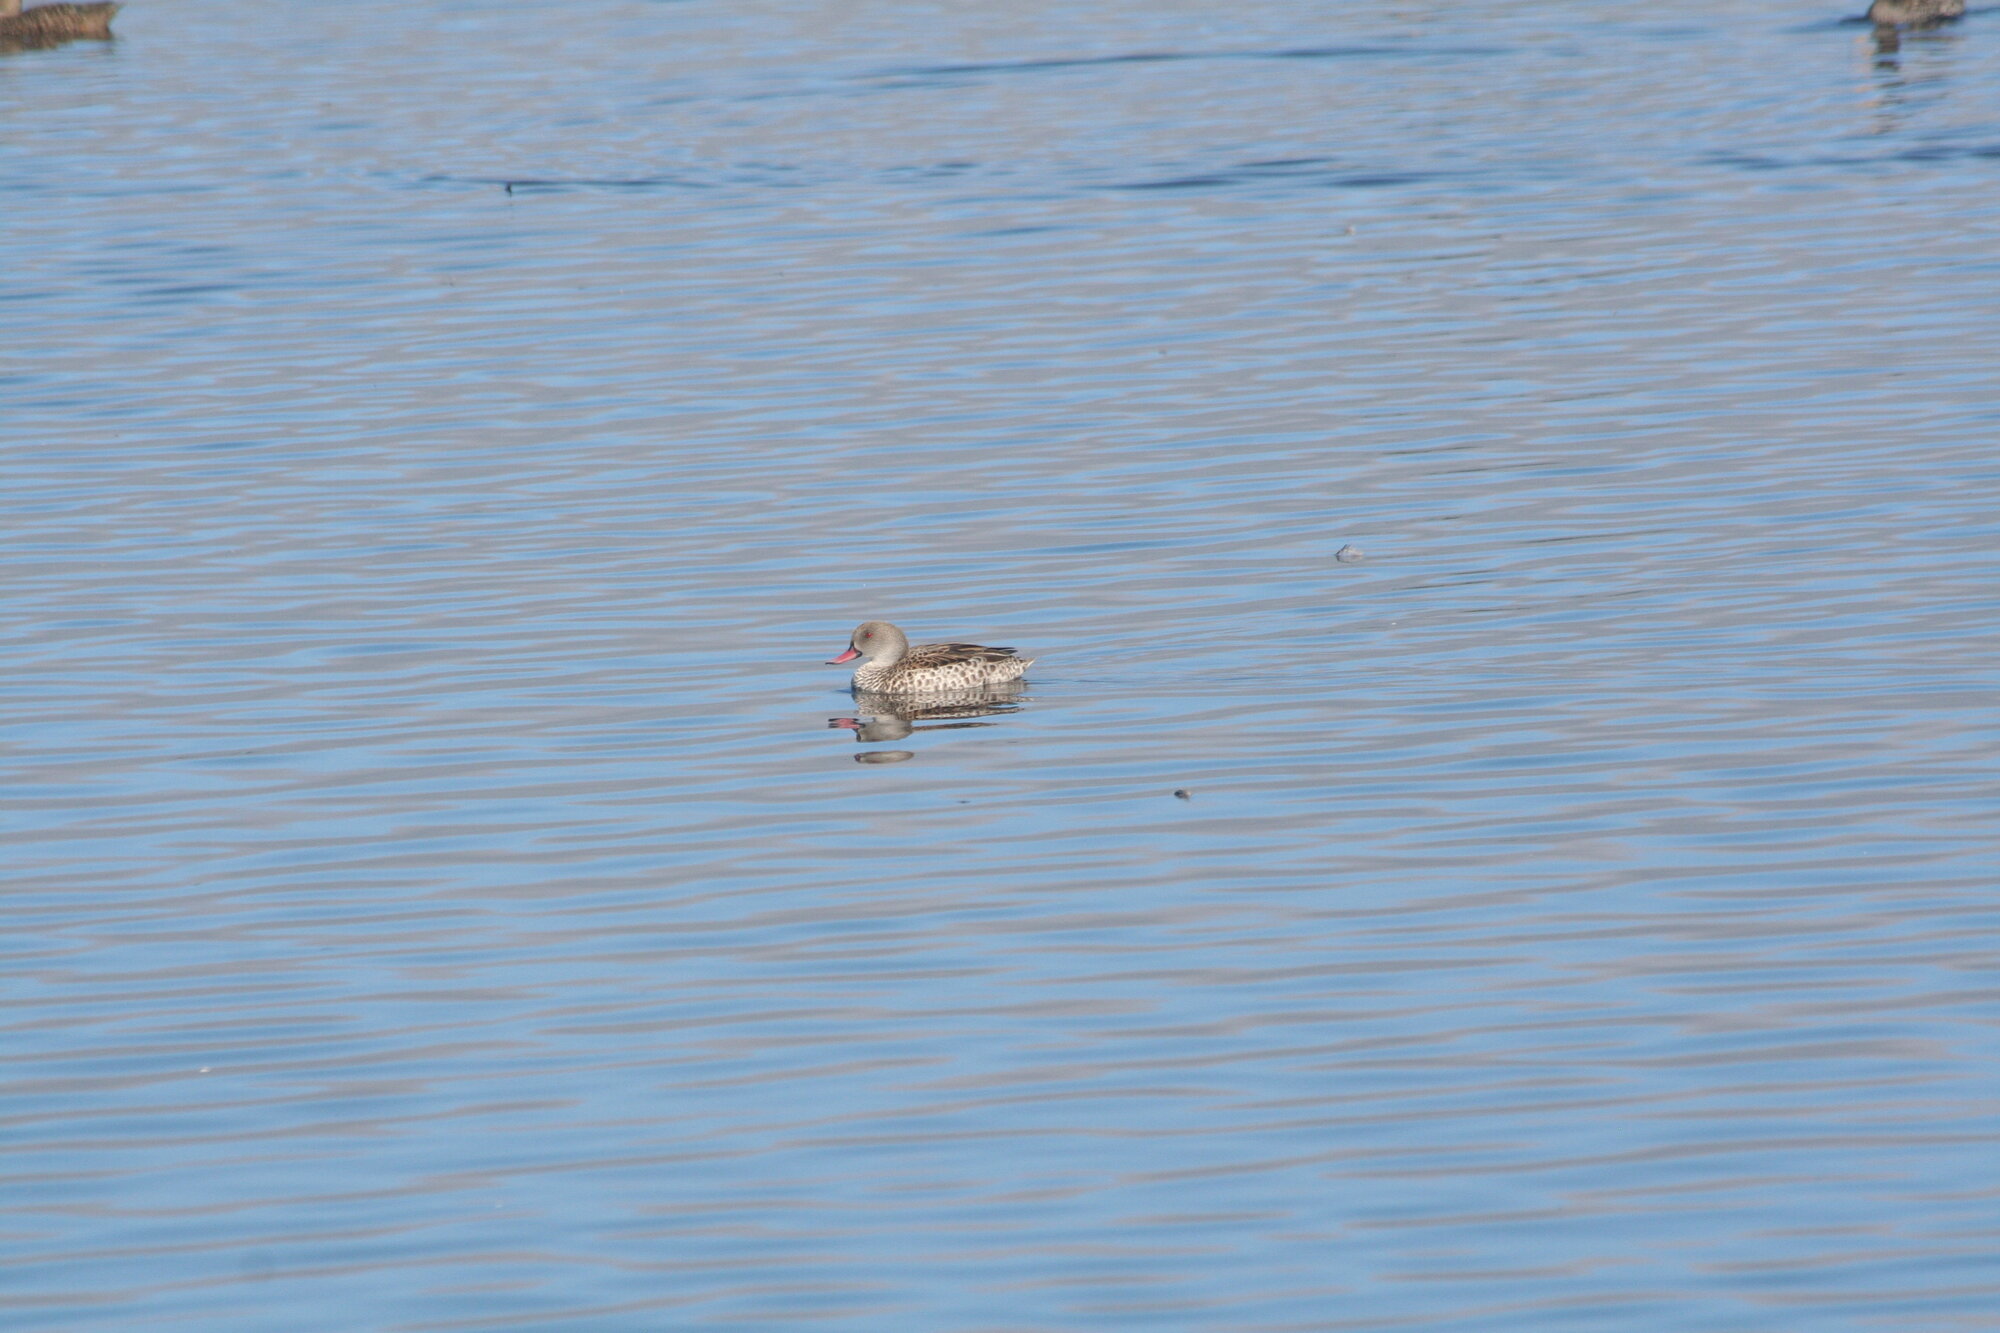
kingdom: Animalia
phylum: Chordata
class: Aves
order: Anseriformes
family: Anatidae
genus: Anas
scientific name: Anas capensis
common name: Cape teal
